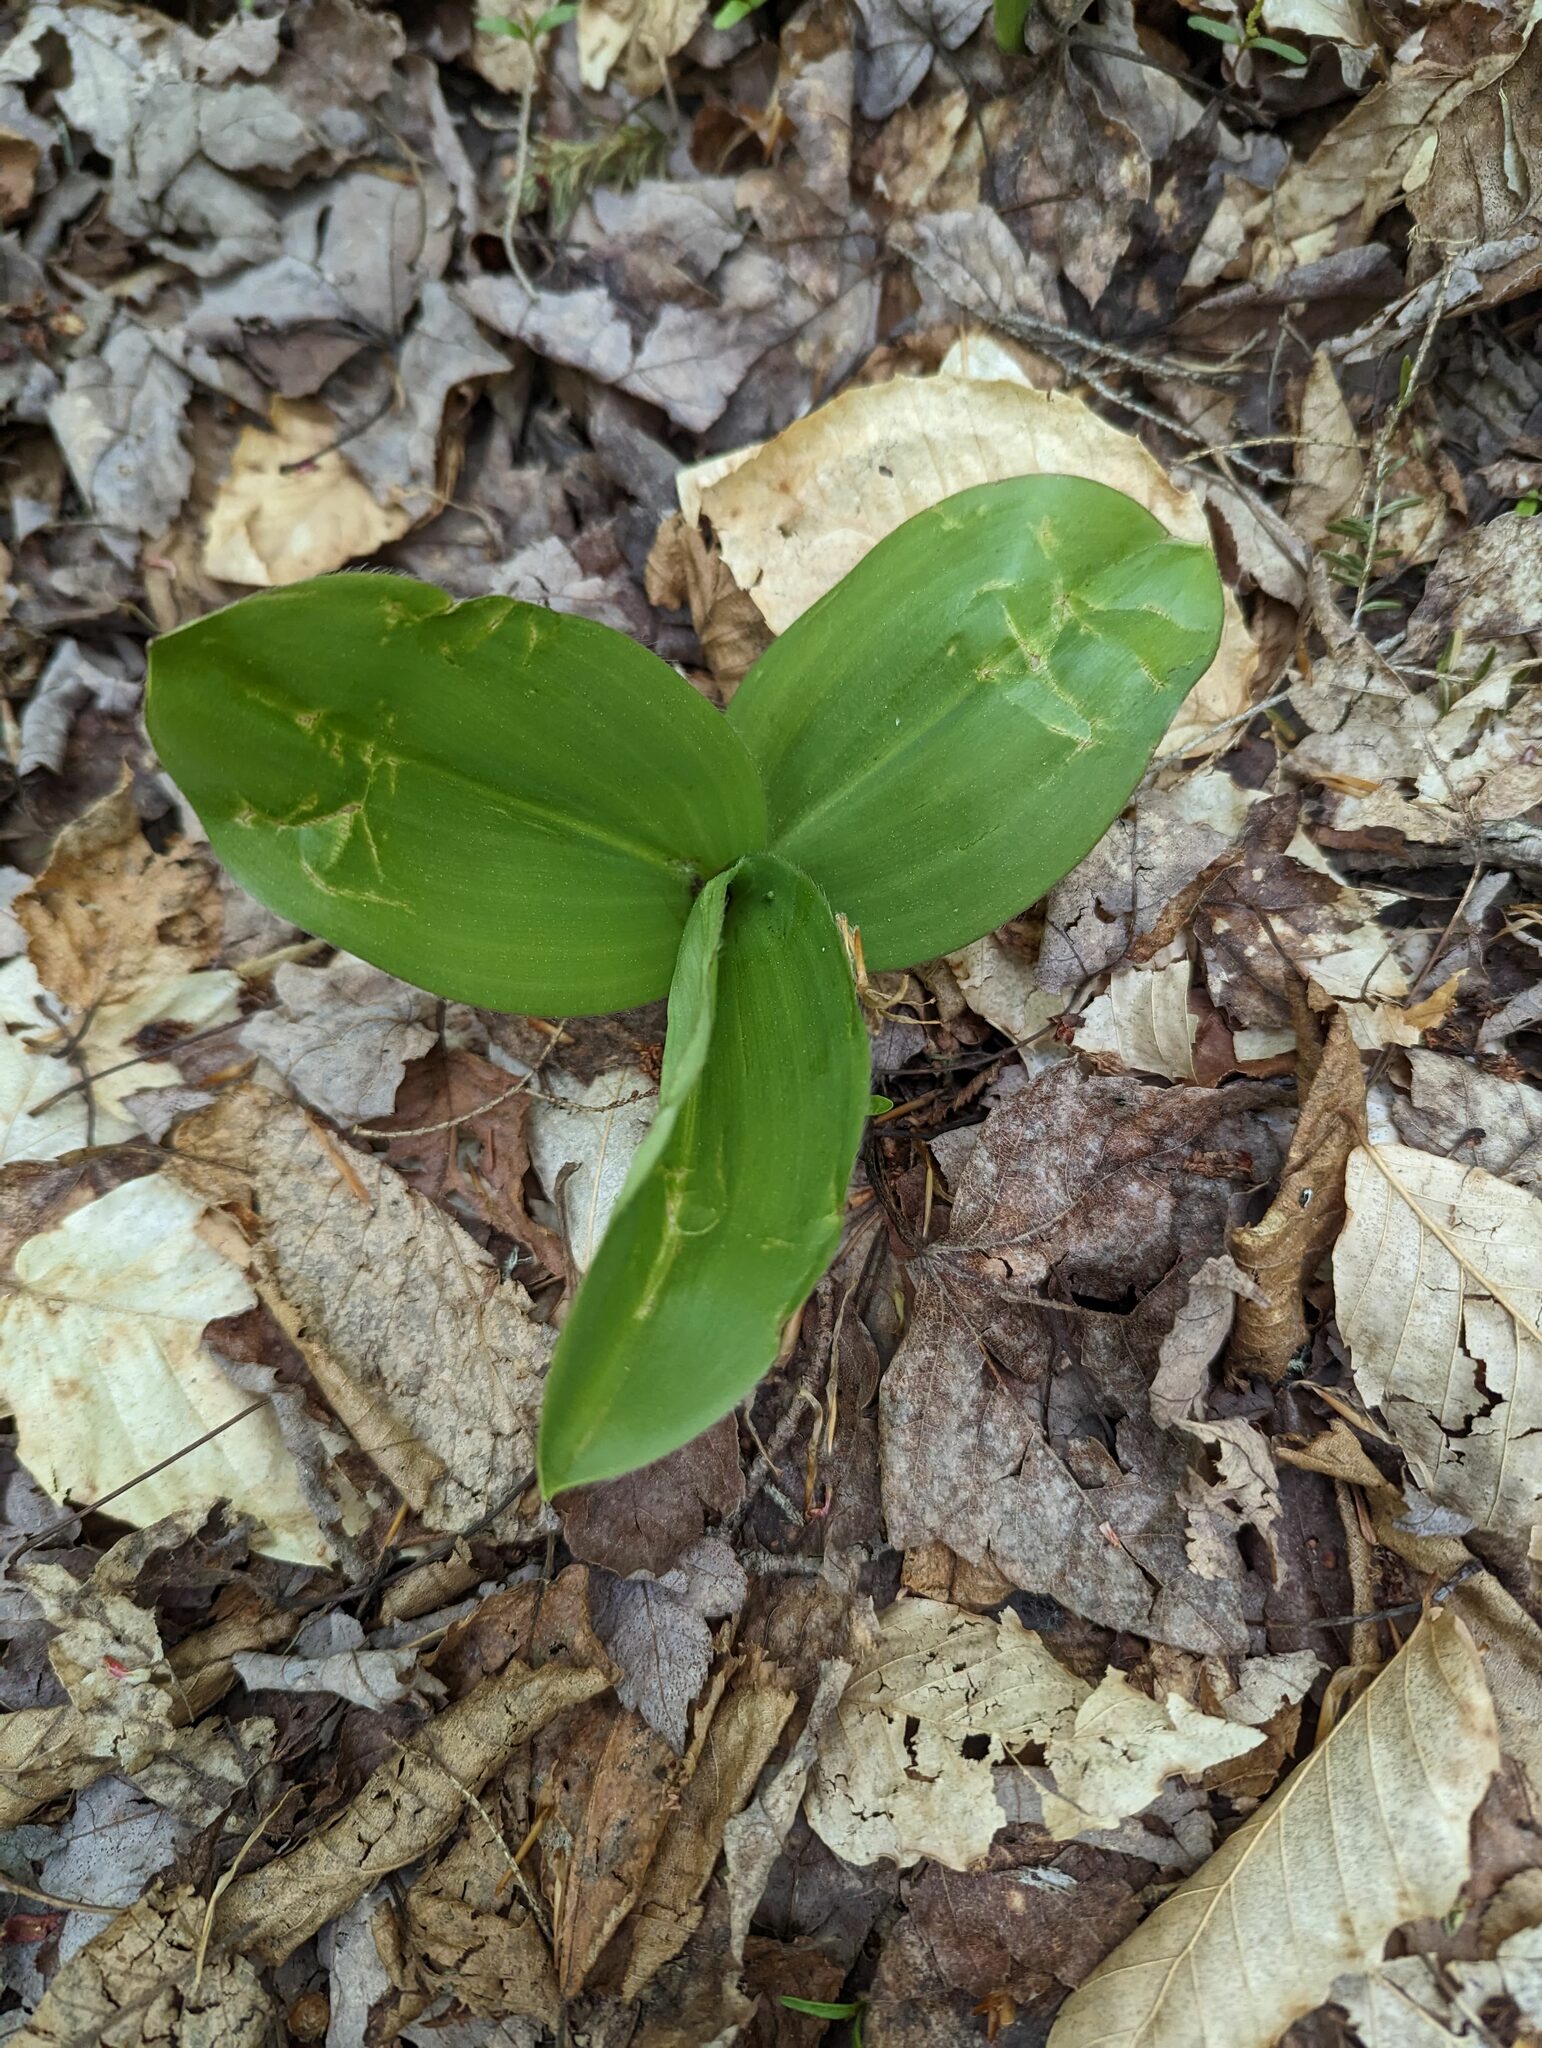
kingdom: Plantae
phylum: Tracheophyta
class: Liliopsida
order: Liliales
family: Liliaceae
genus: Clintonia
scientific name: Clintonia borealis
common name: Yellow clintonia
